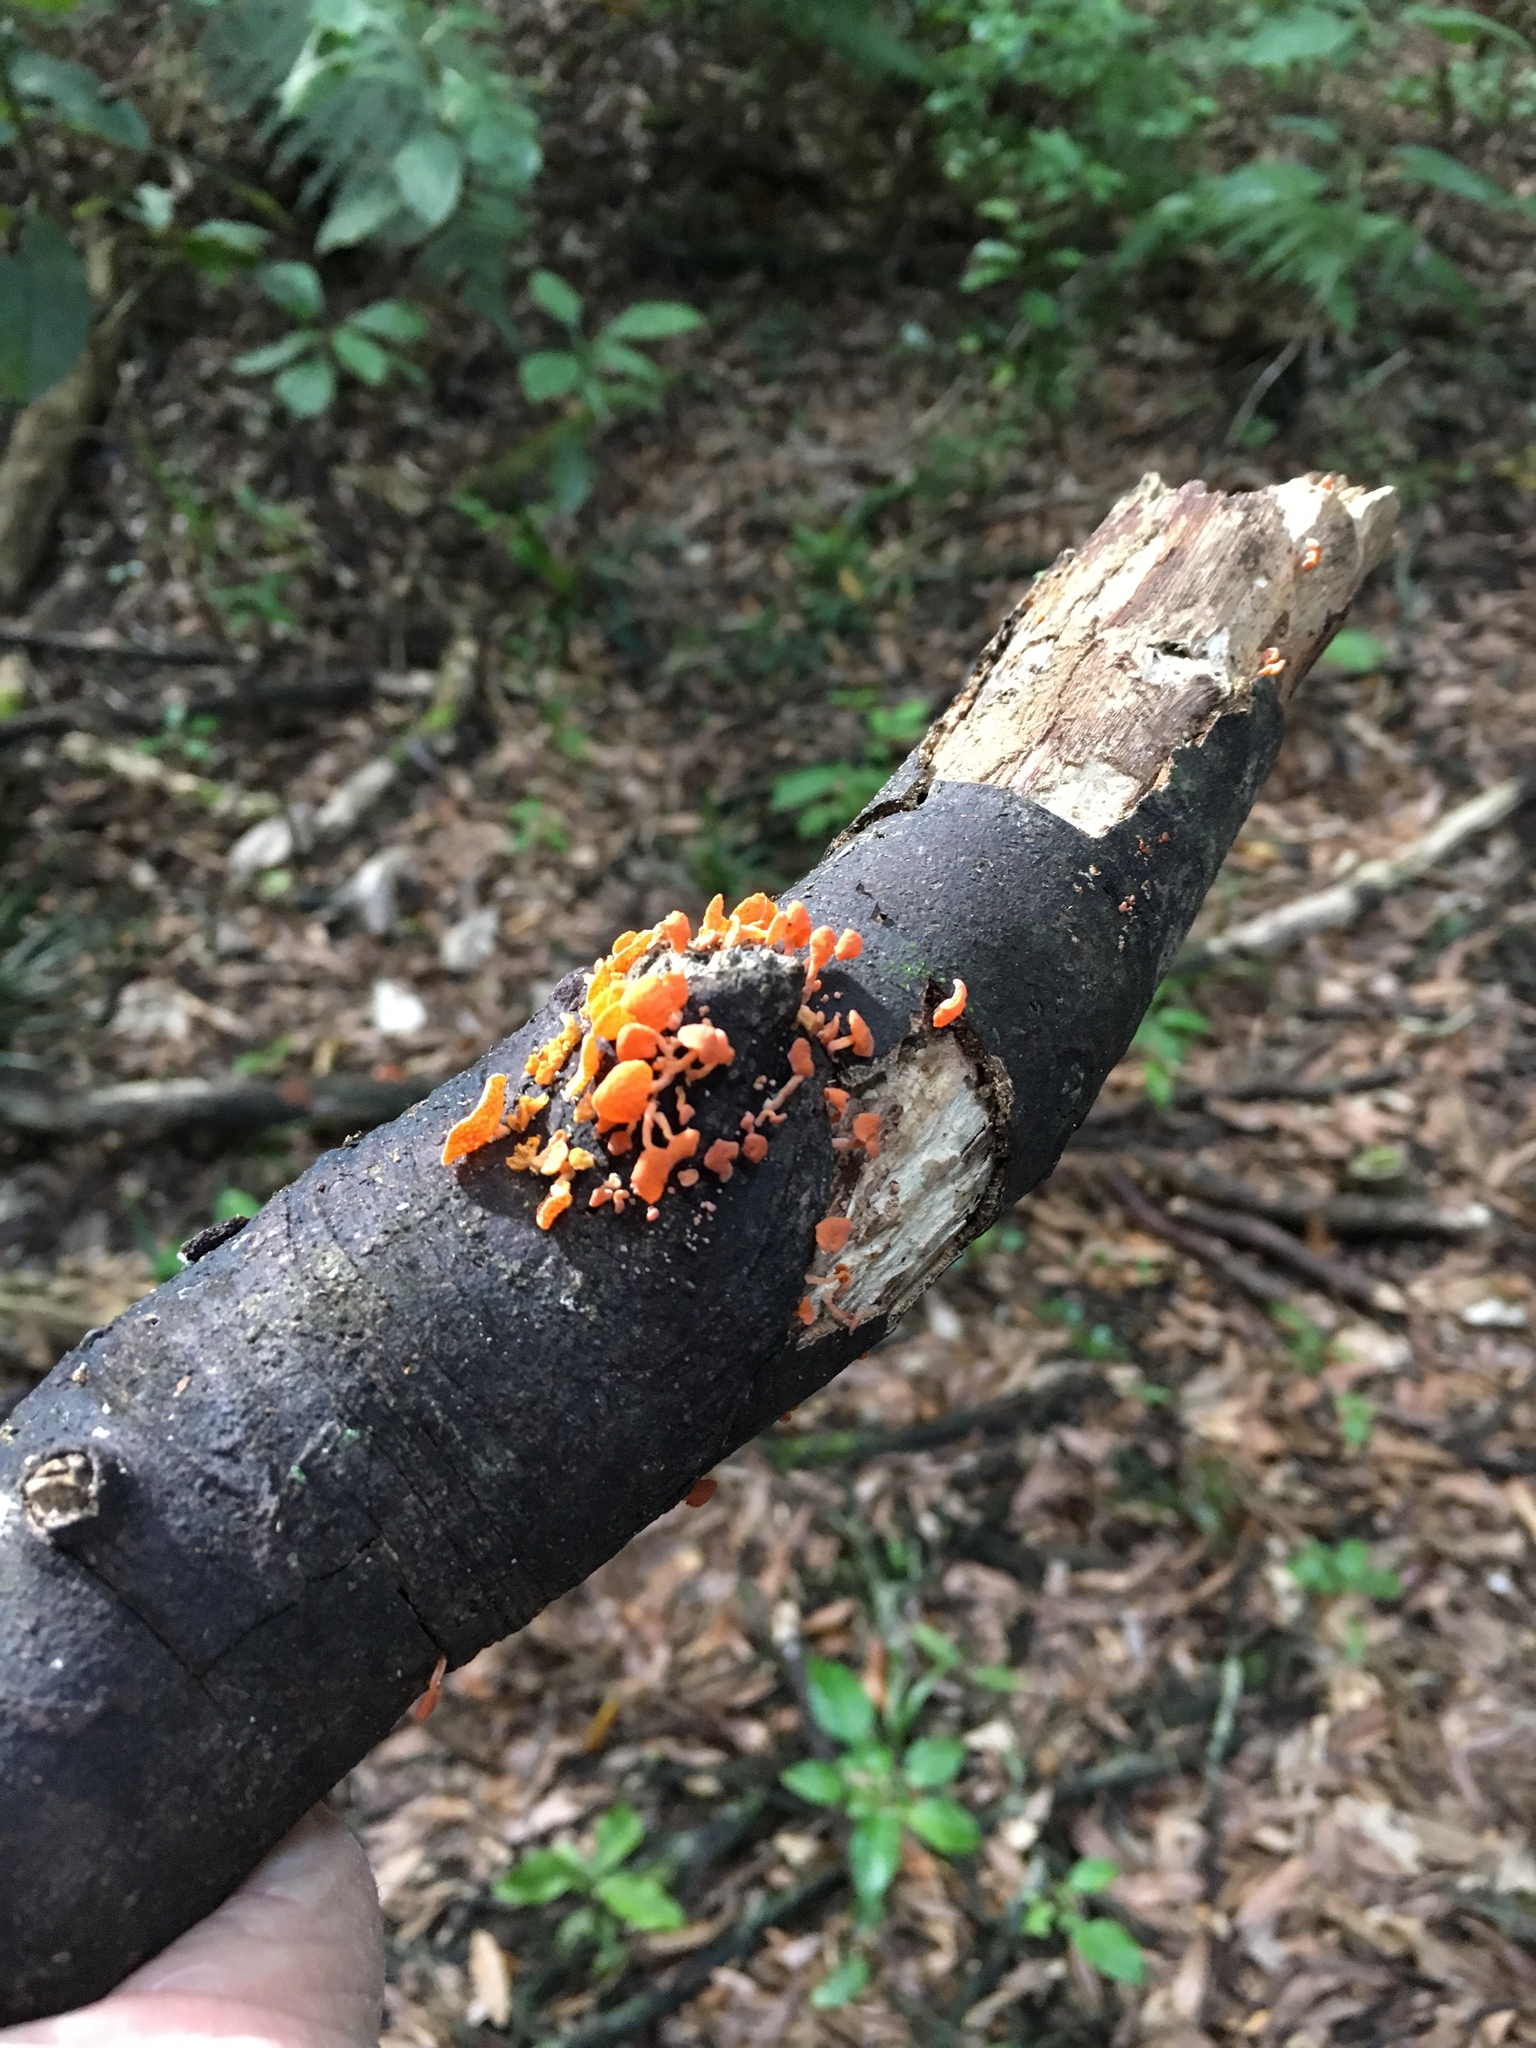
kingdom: Fungi
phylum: Basidiomycota
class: Agaricomycetes
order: Agaricales
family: Mycenaceae
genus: Favolaschia
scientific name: Favolaschia claudopus
